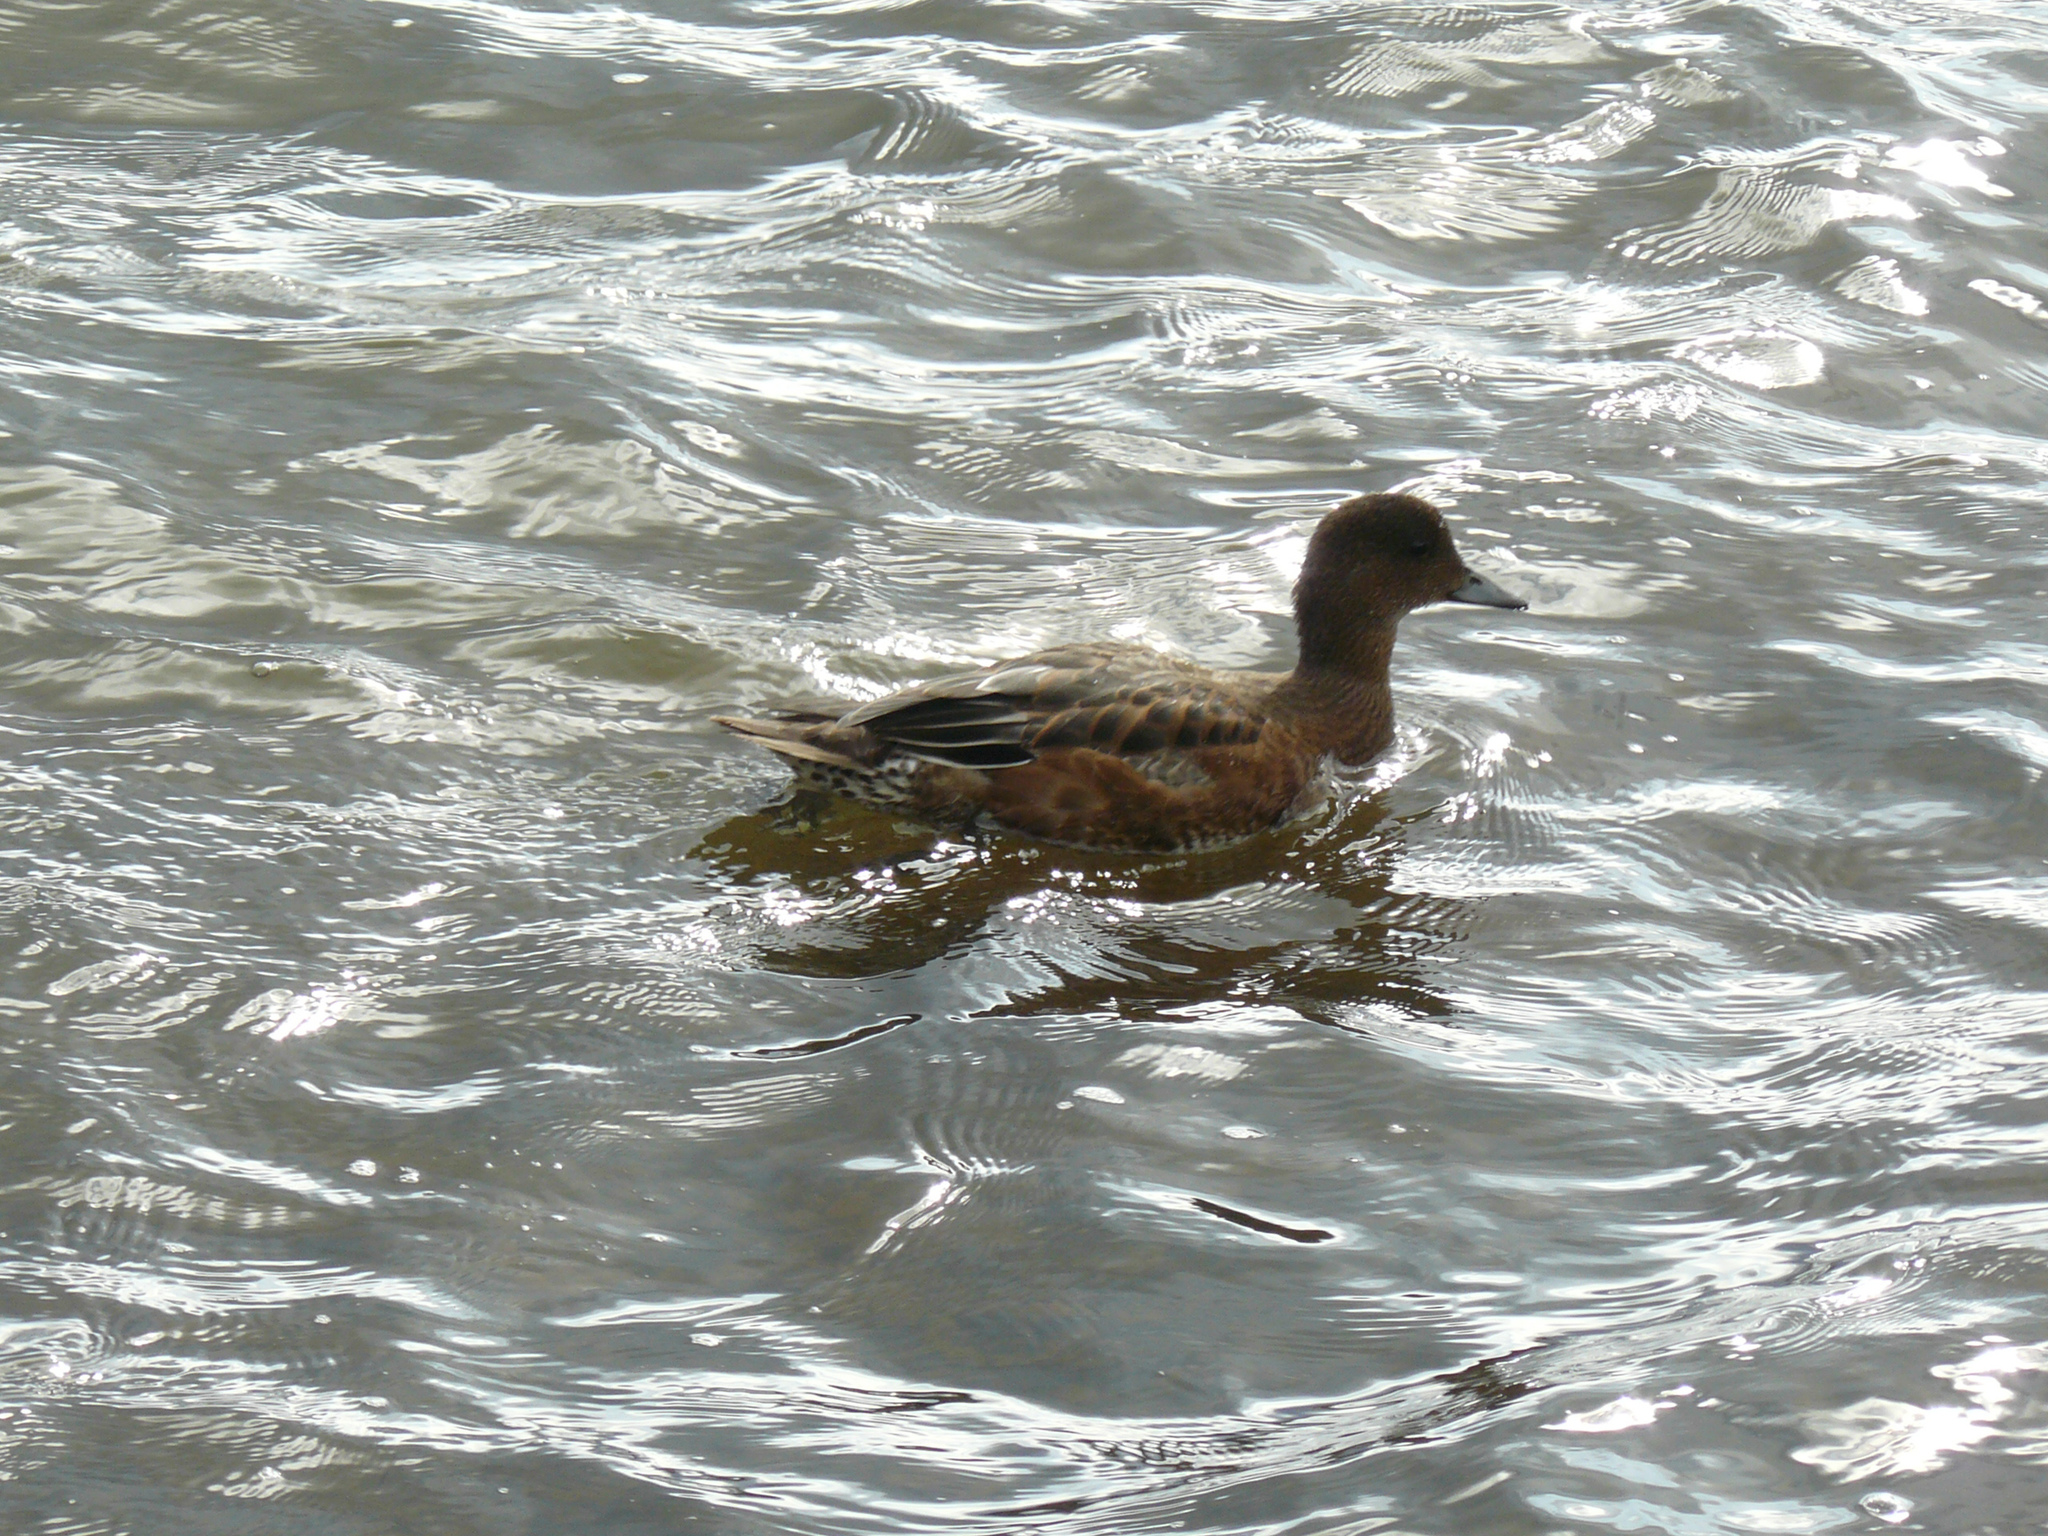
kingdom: Animalia
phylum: Chordata
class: Aves
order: Anseriformes
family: Anatidae
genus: Mareca
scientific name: Mareca penelope
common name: Eurasian wigeon
